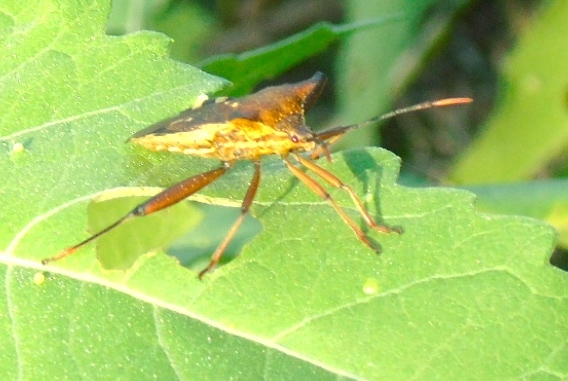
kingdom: Animalia
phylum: Arthropoda
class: Insecta
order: Hemiptera
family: Coreidae
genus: Mozena
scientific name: Mozena
